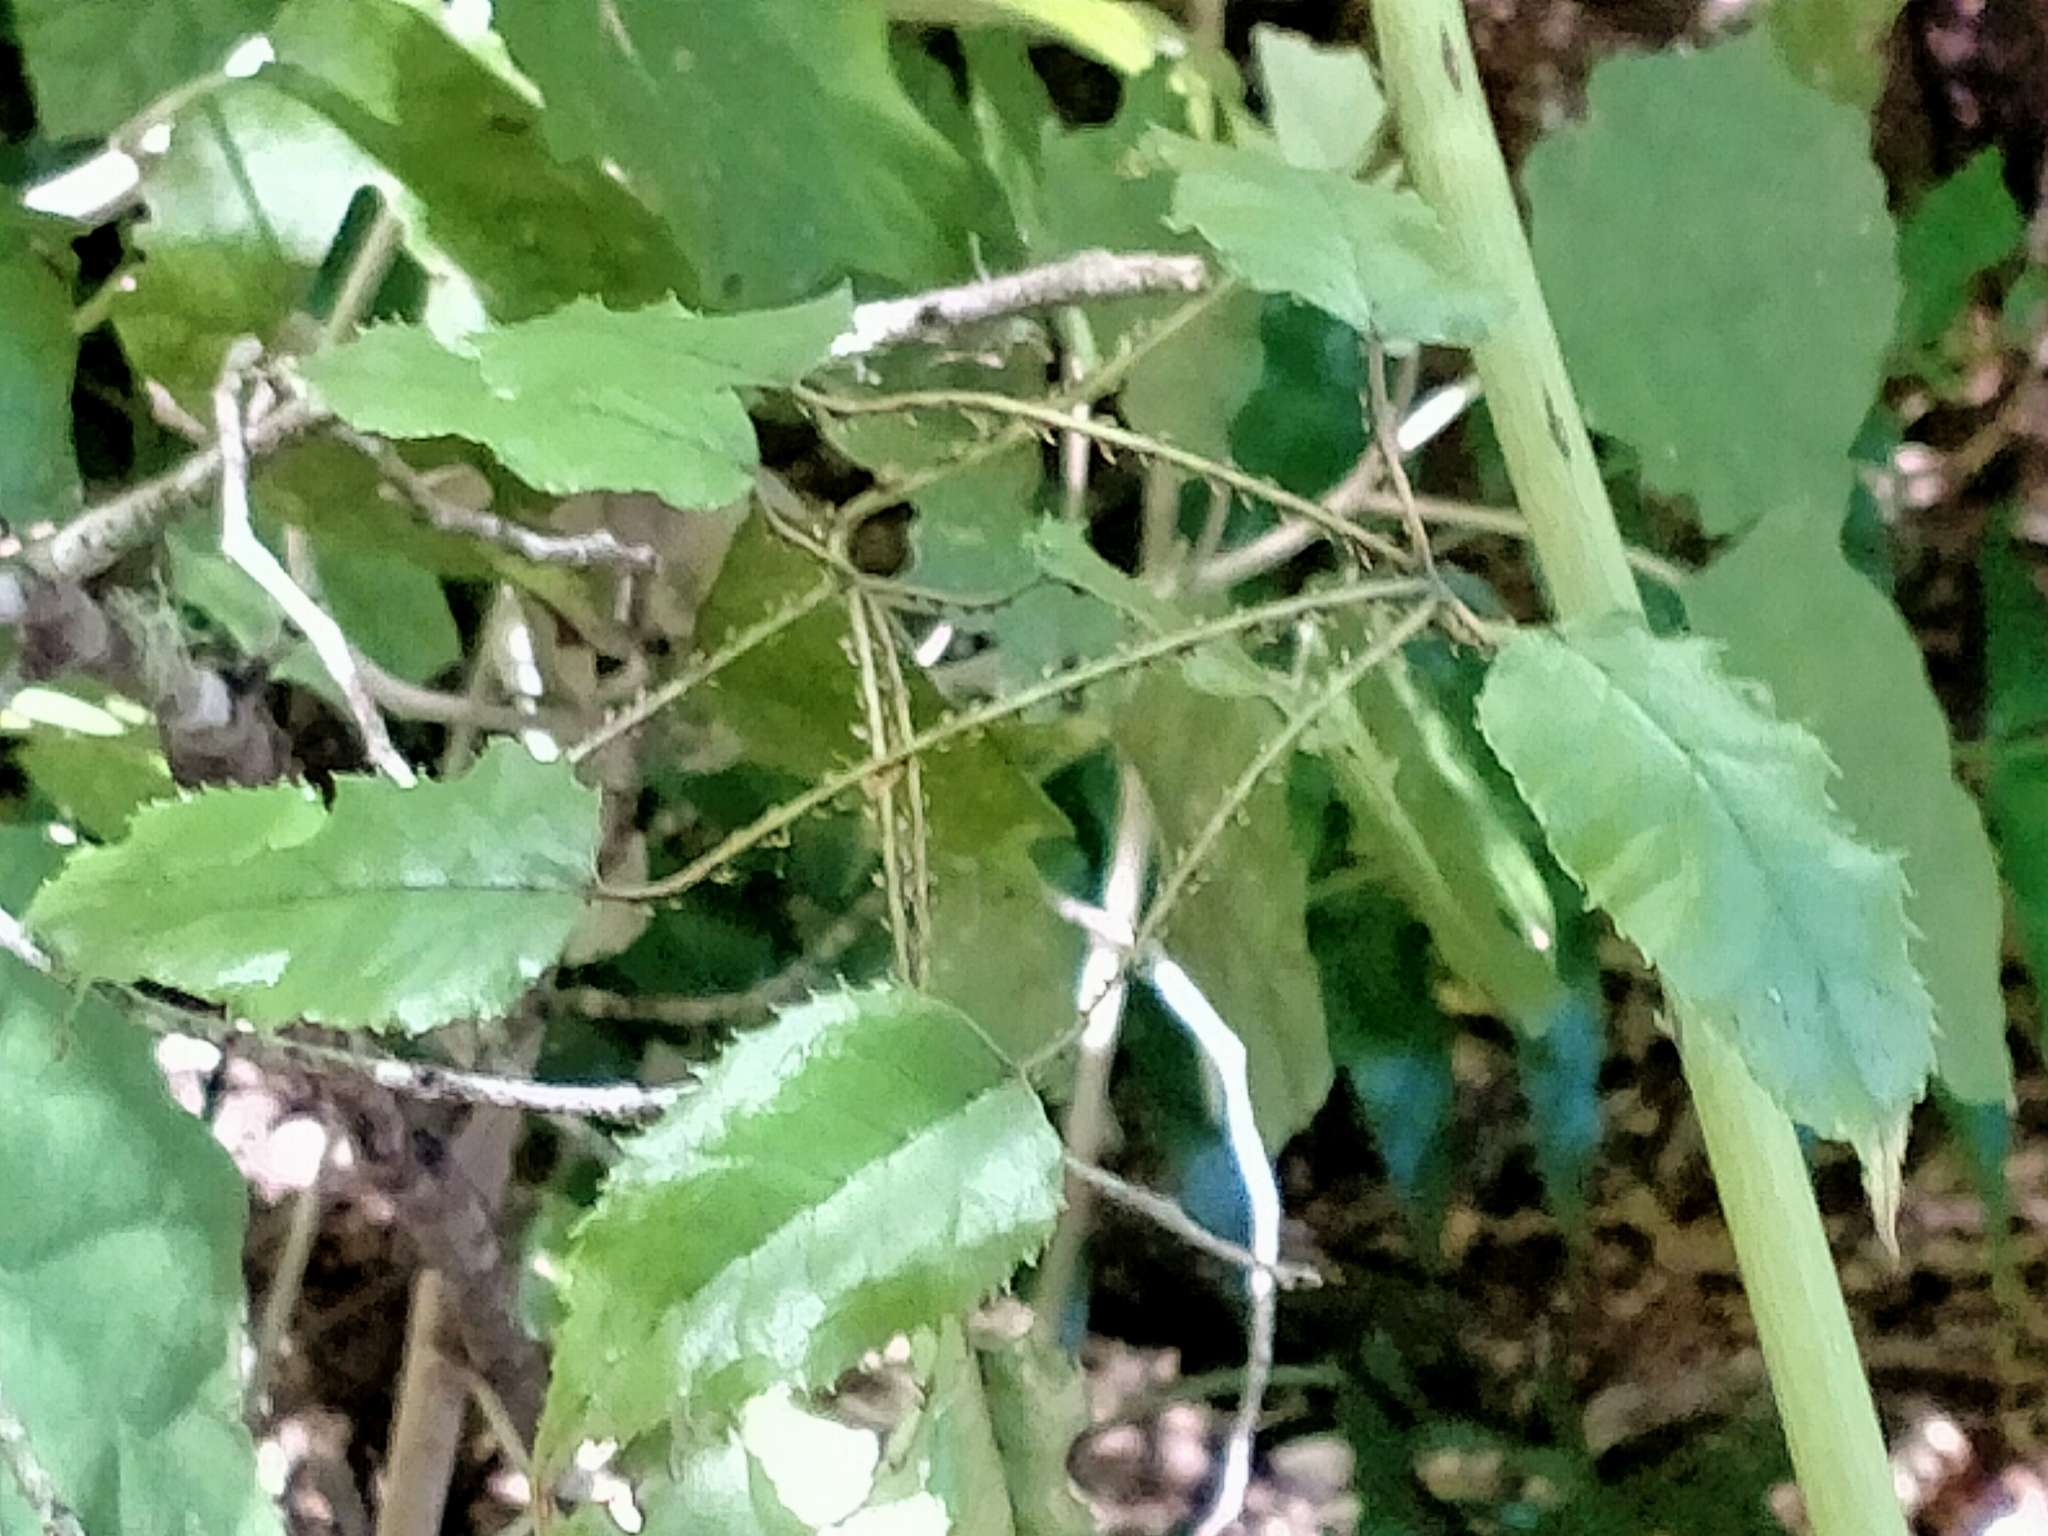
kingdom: Plantae
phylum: Tracheophyta
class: Magnoliopsida
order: Rosales
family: Rosaceae
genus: Rubus
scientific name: Rubus australis
